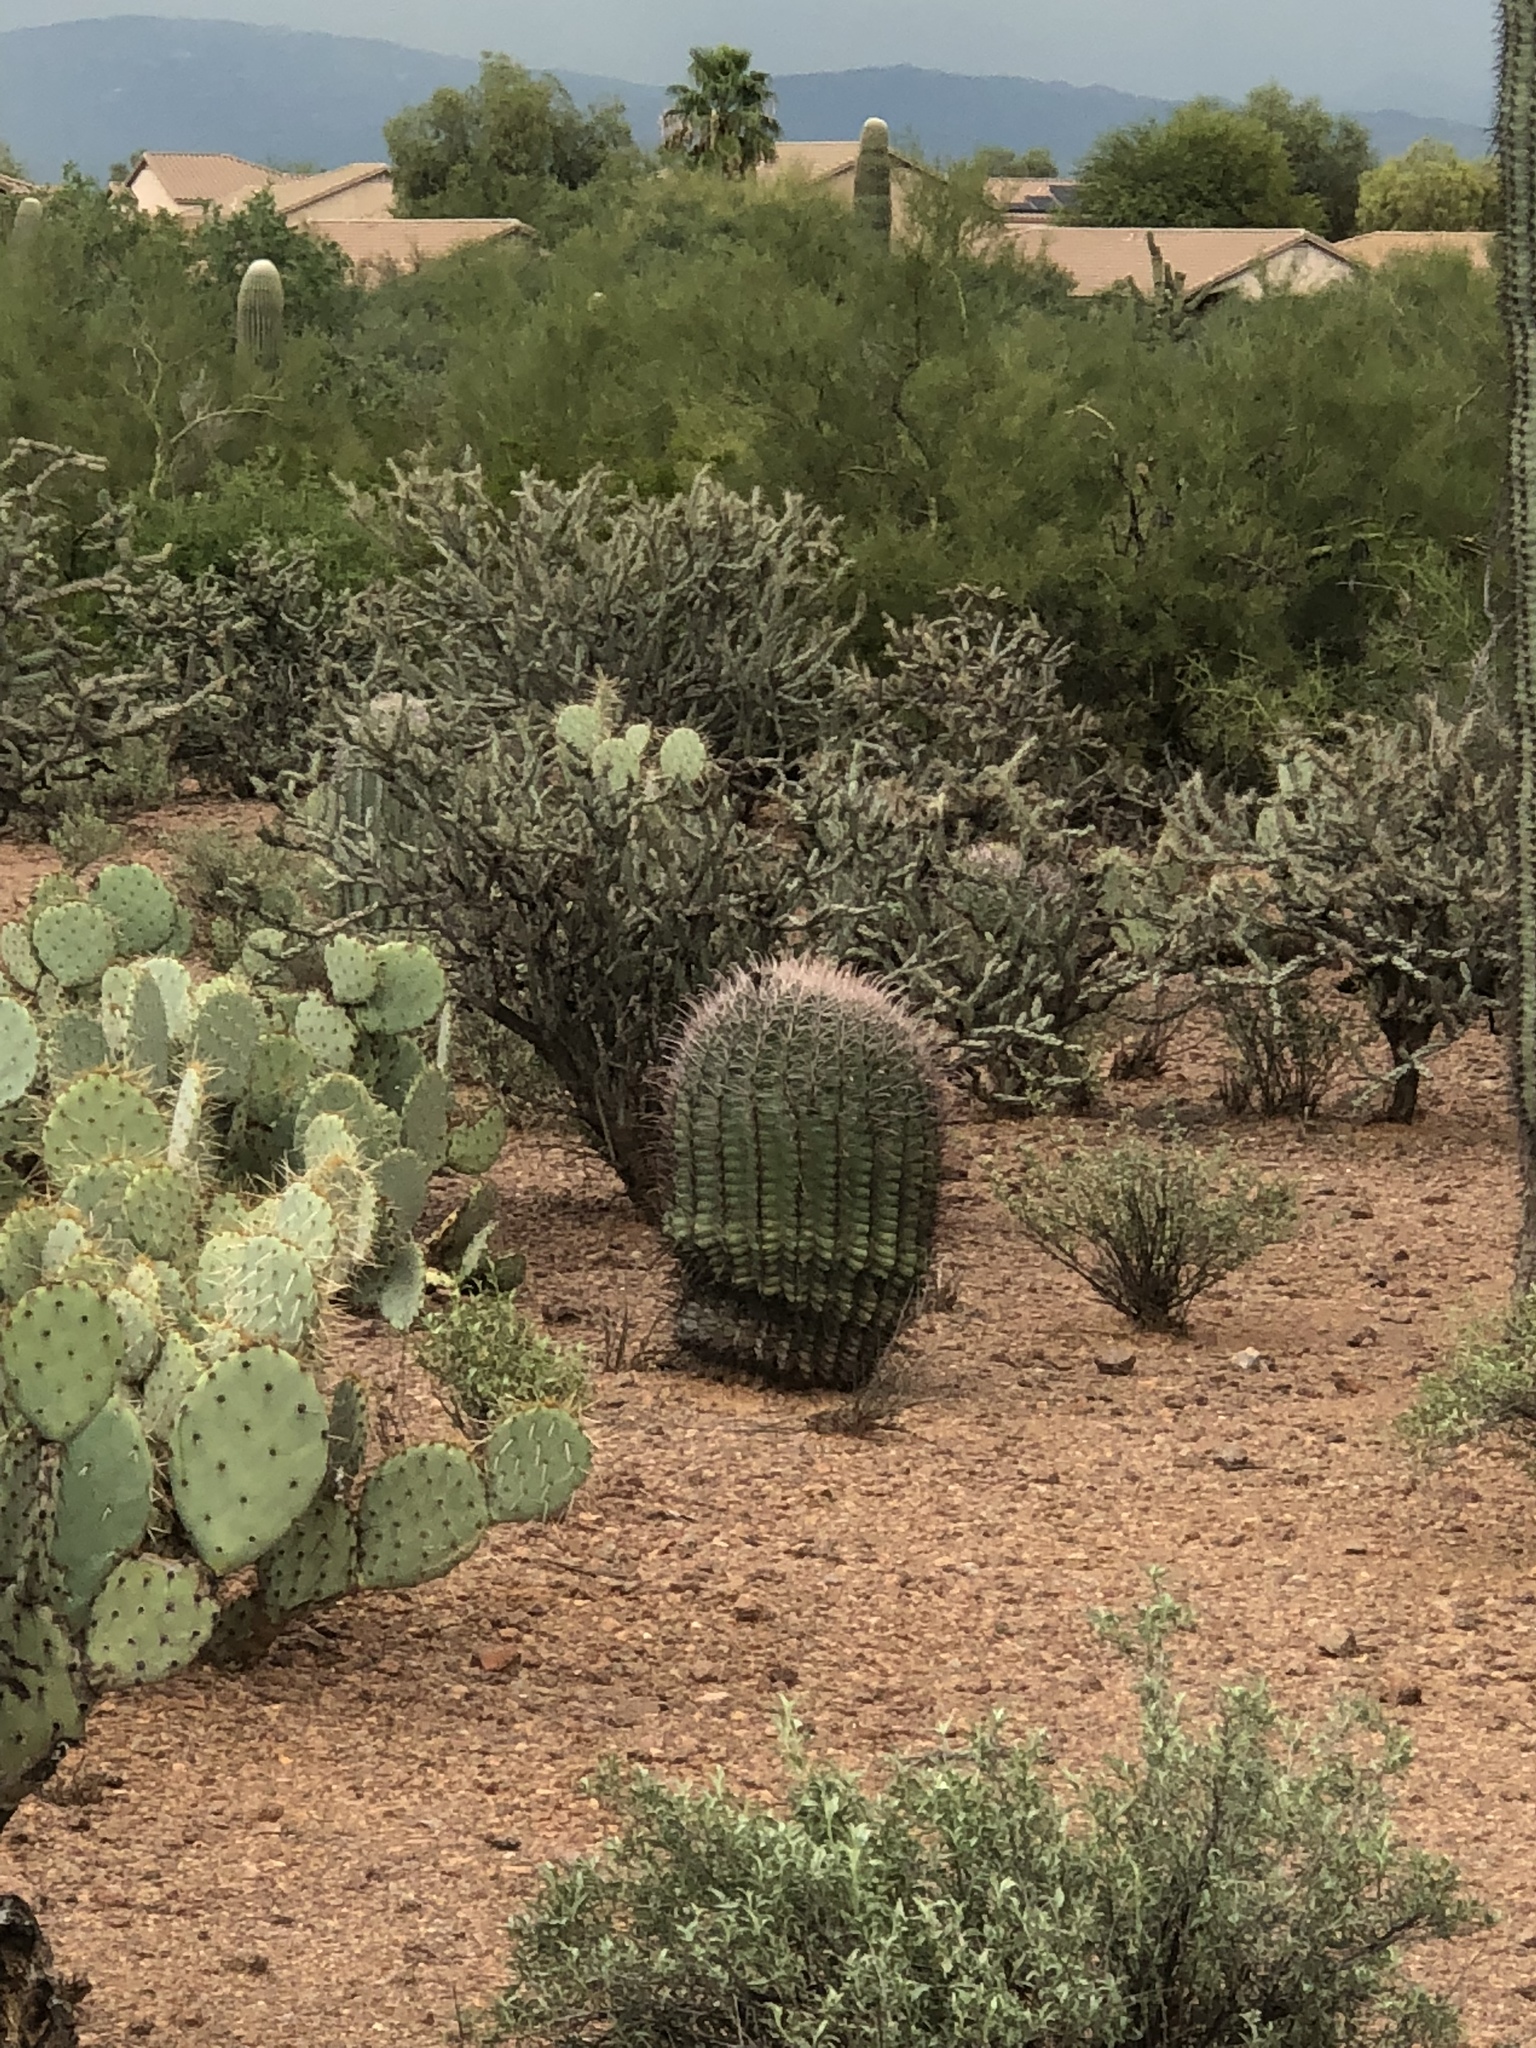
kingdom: Plantae
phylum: Tracheophyta
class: Magnoliopsida
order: Caryophyllales
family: Cactaceae
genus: Ferocactus
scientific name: Ferocactus wislizeni
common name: Candy barrel cactus
